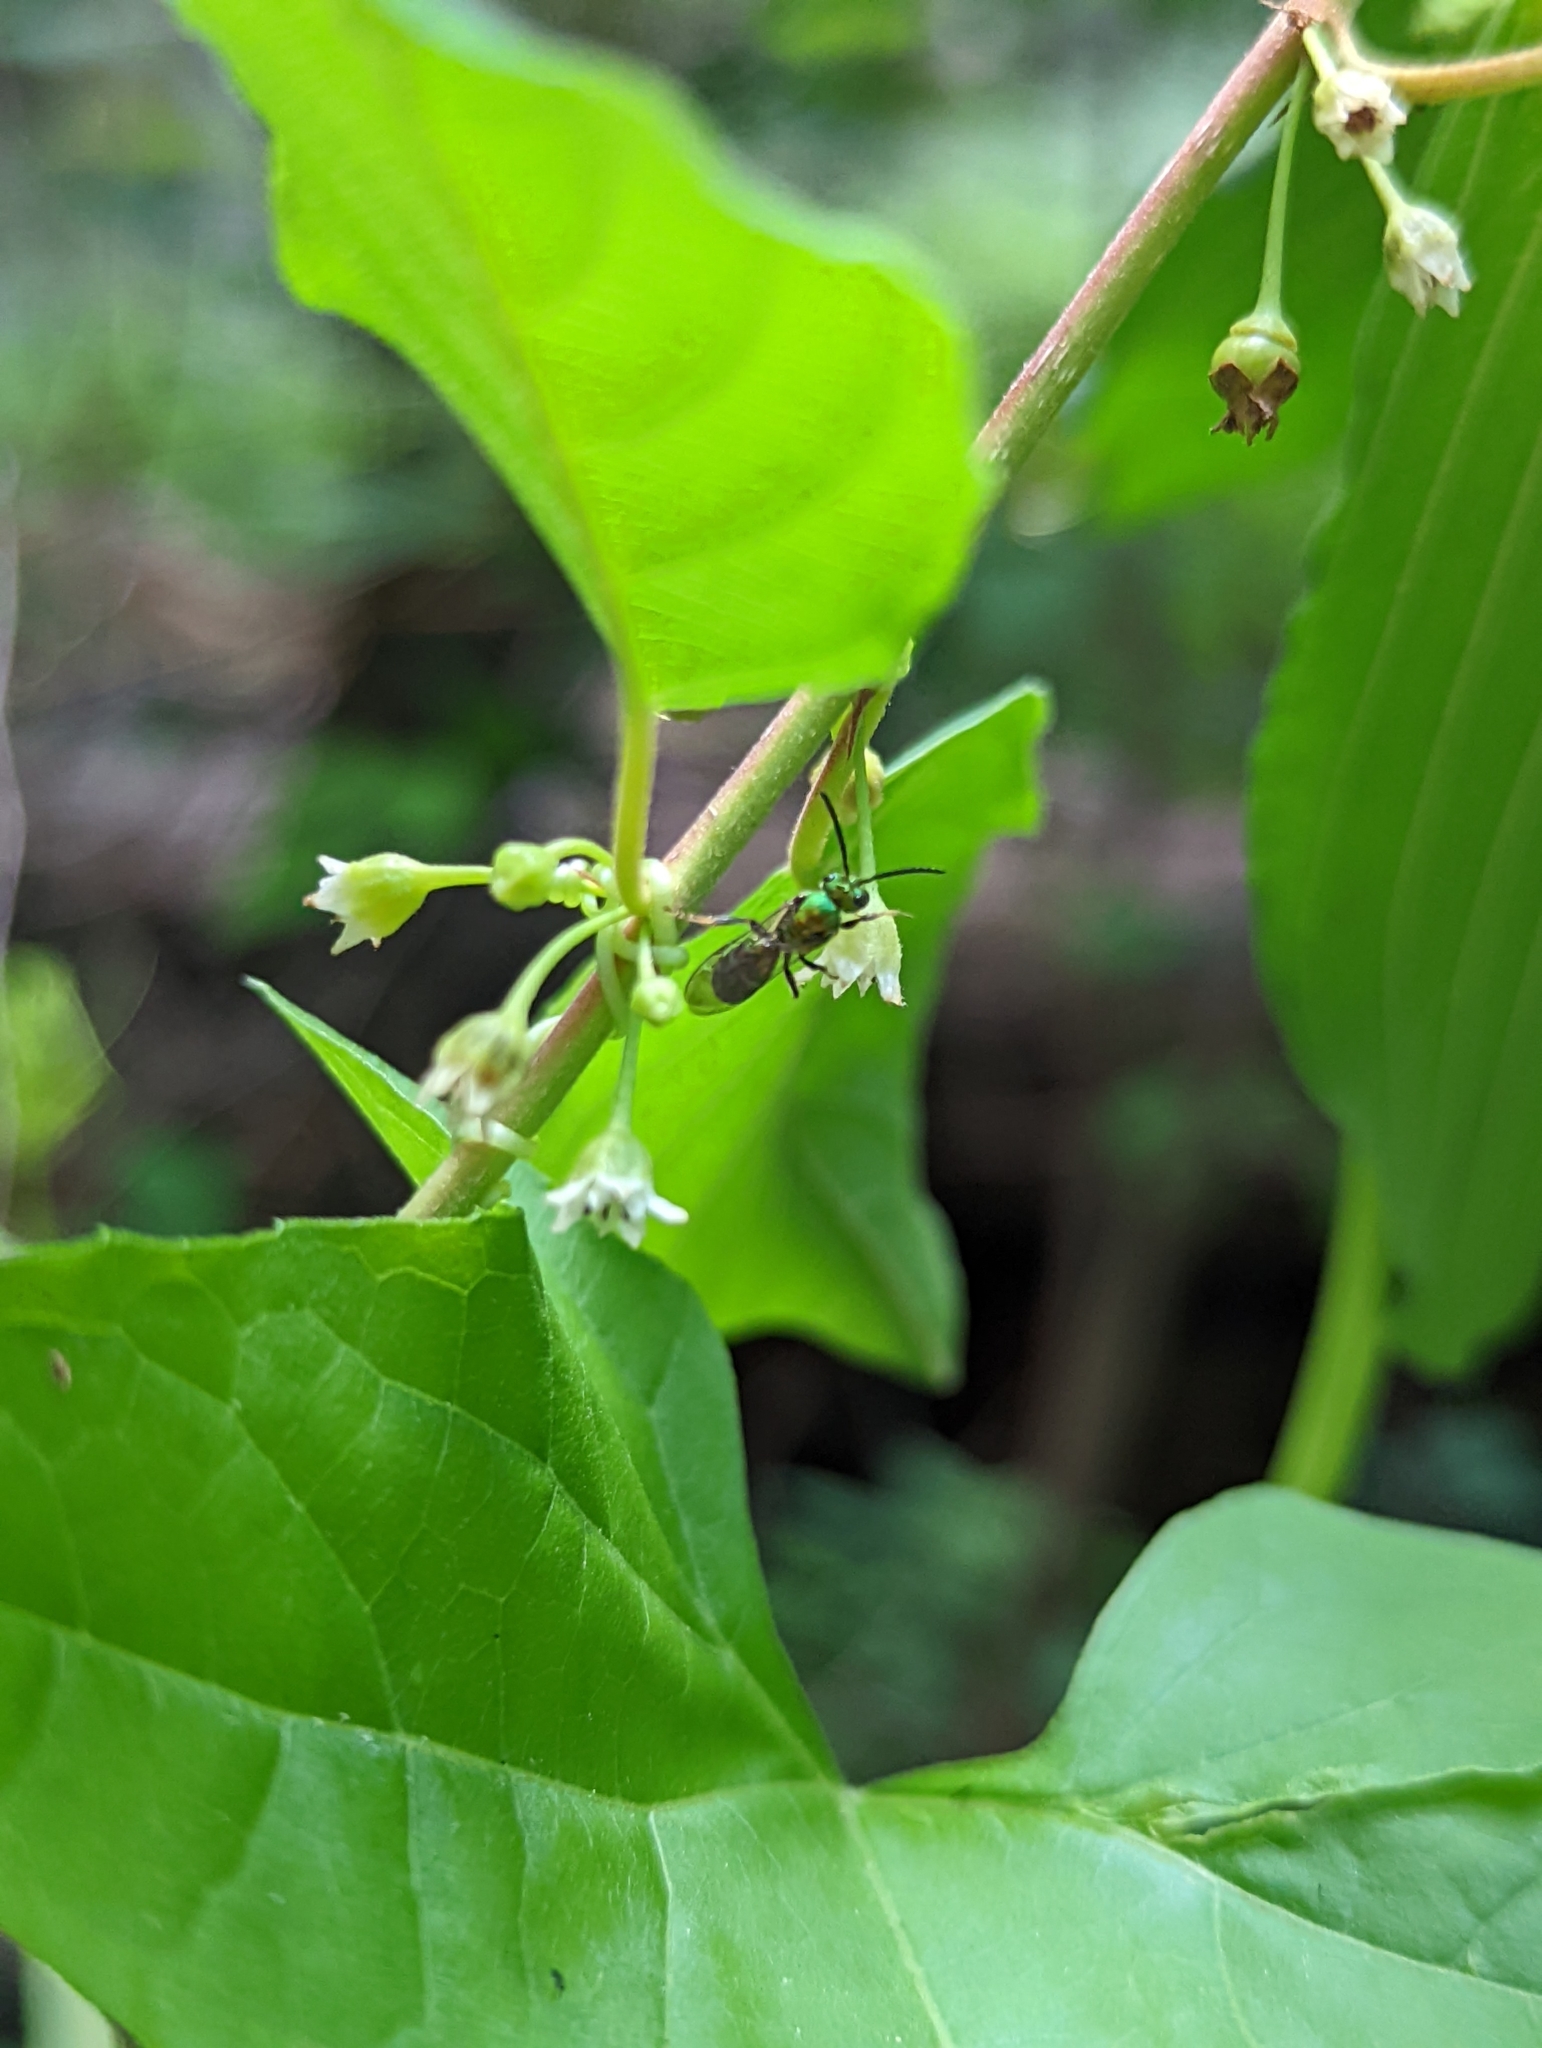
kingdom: Plantae
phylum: Tracheophyta
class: Magnoliopsida
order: Cucurbitales
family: Cucurbitaceae
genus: Echinocystis
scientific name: Echinocystis lobata
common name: Wild cucumber
